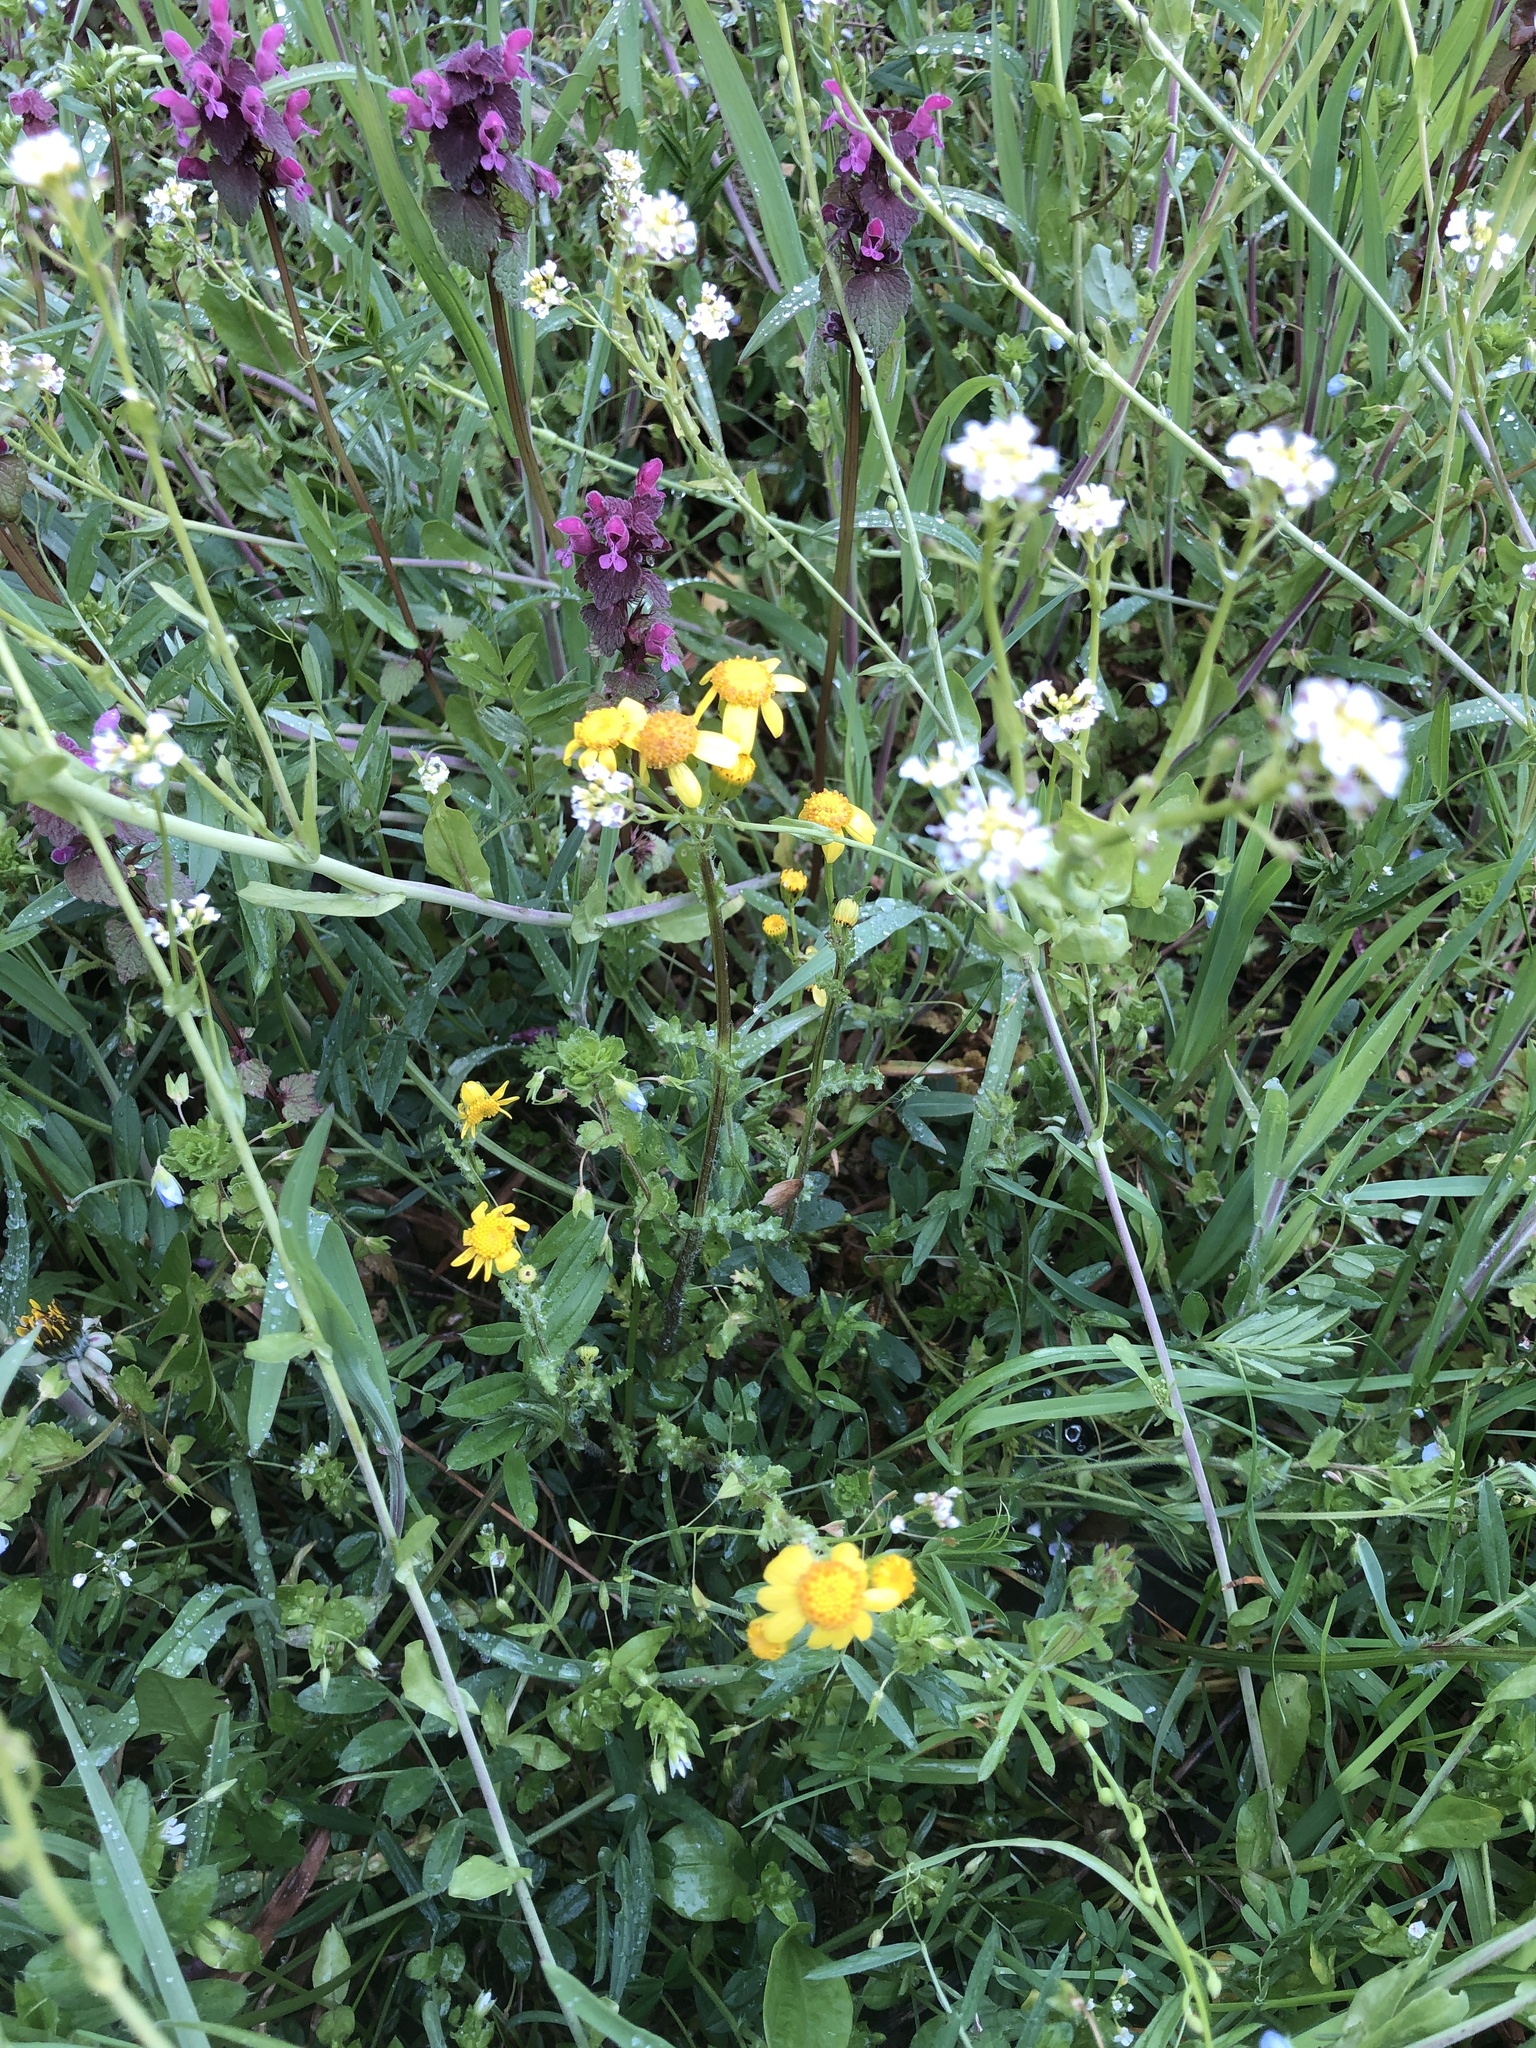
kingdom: Plantae
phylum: Tracheophyta
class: Magnoliopsida
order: Asterales
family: Asteraceae
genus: Senecio
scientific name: Senecio vernalis
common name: Eastern groundsel
